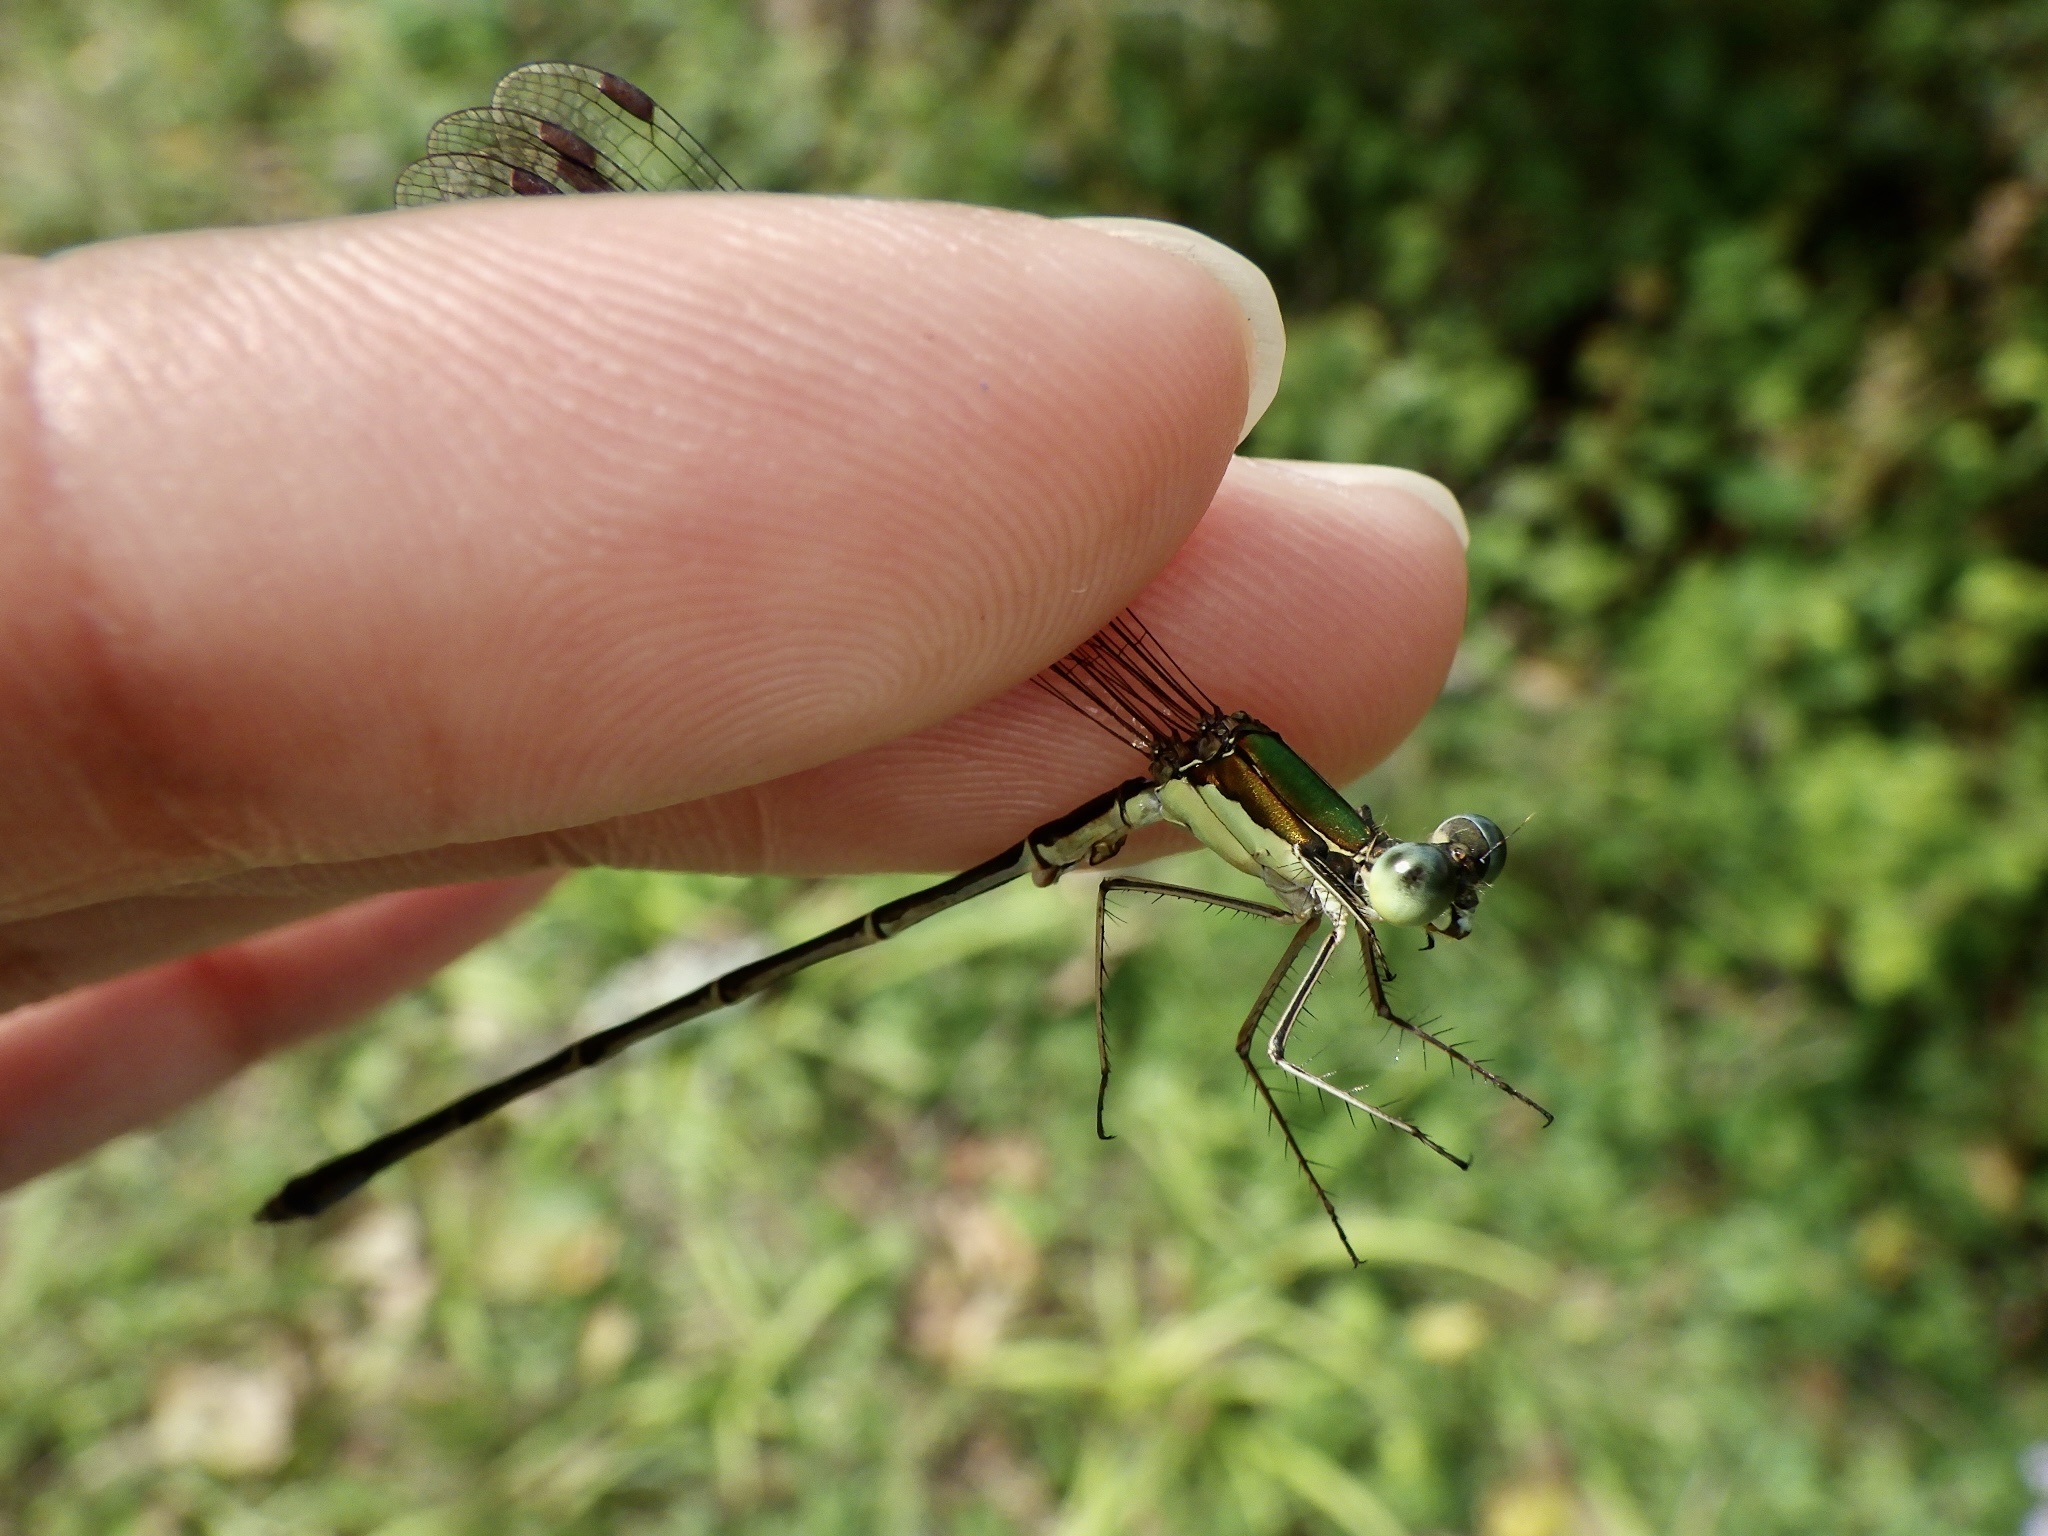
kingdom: Animalia
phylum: Arthropoda
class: Insecta
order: Odonata
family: Lestidae
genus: Lestes
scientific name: Lestes temporalis
